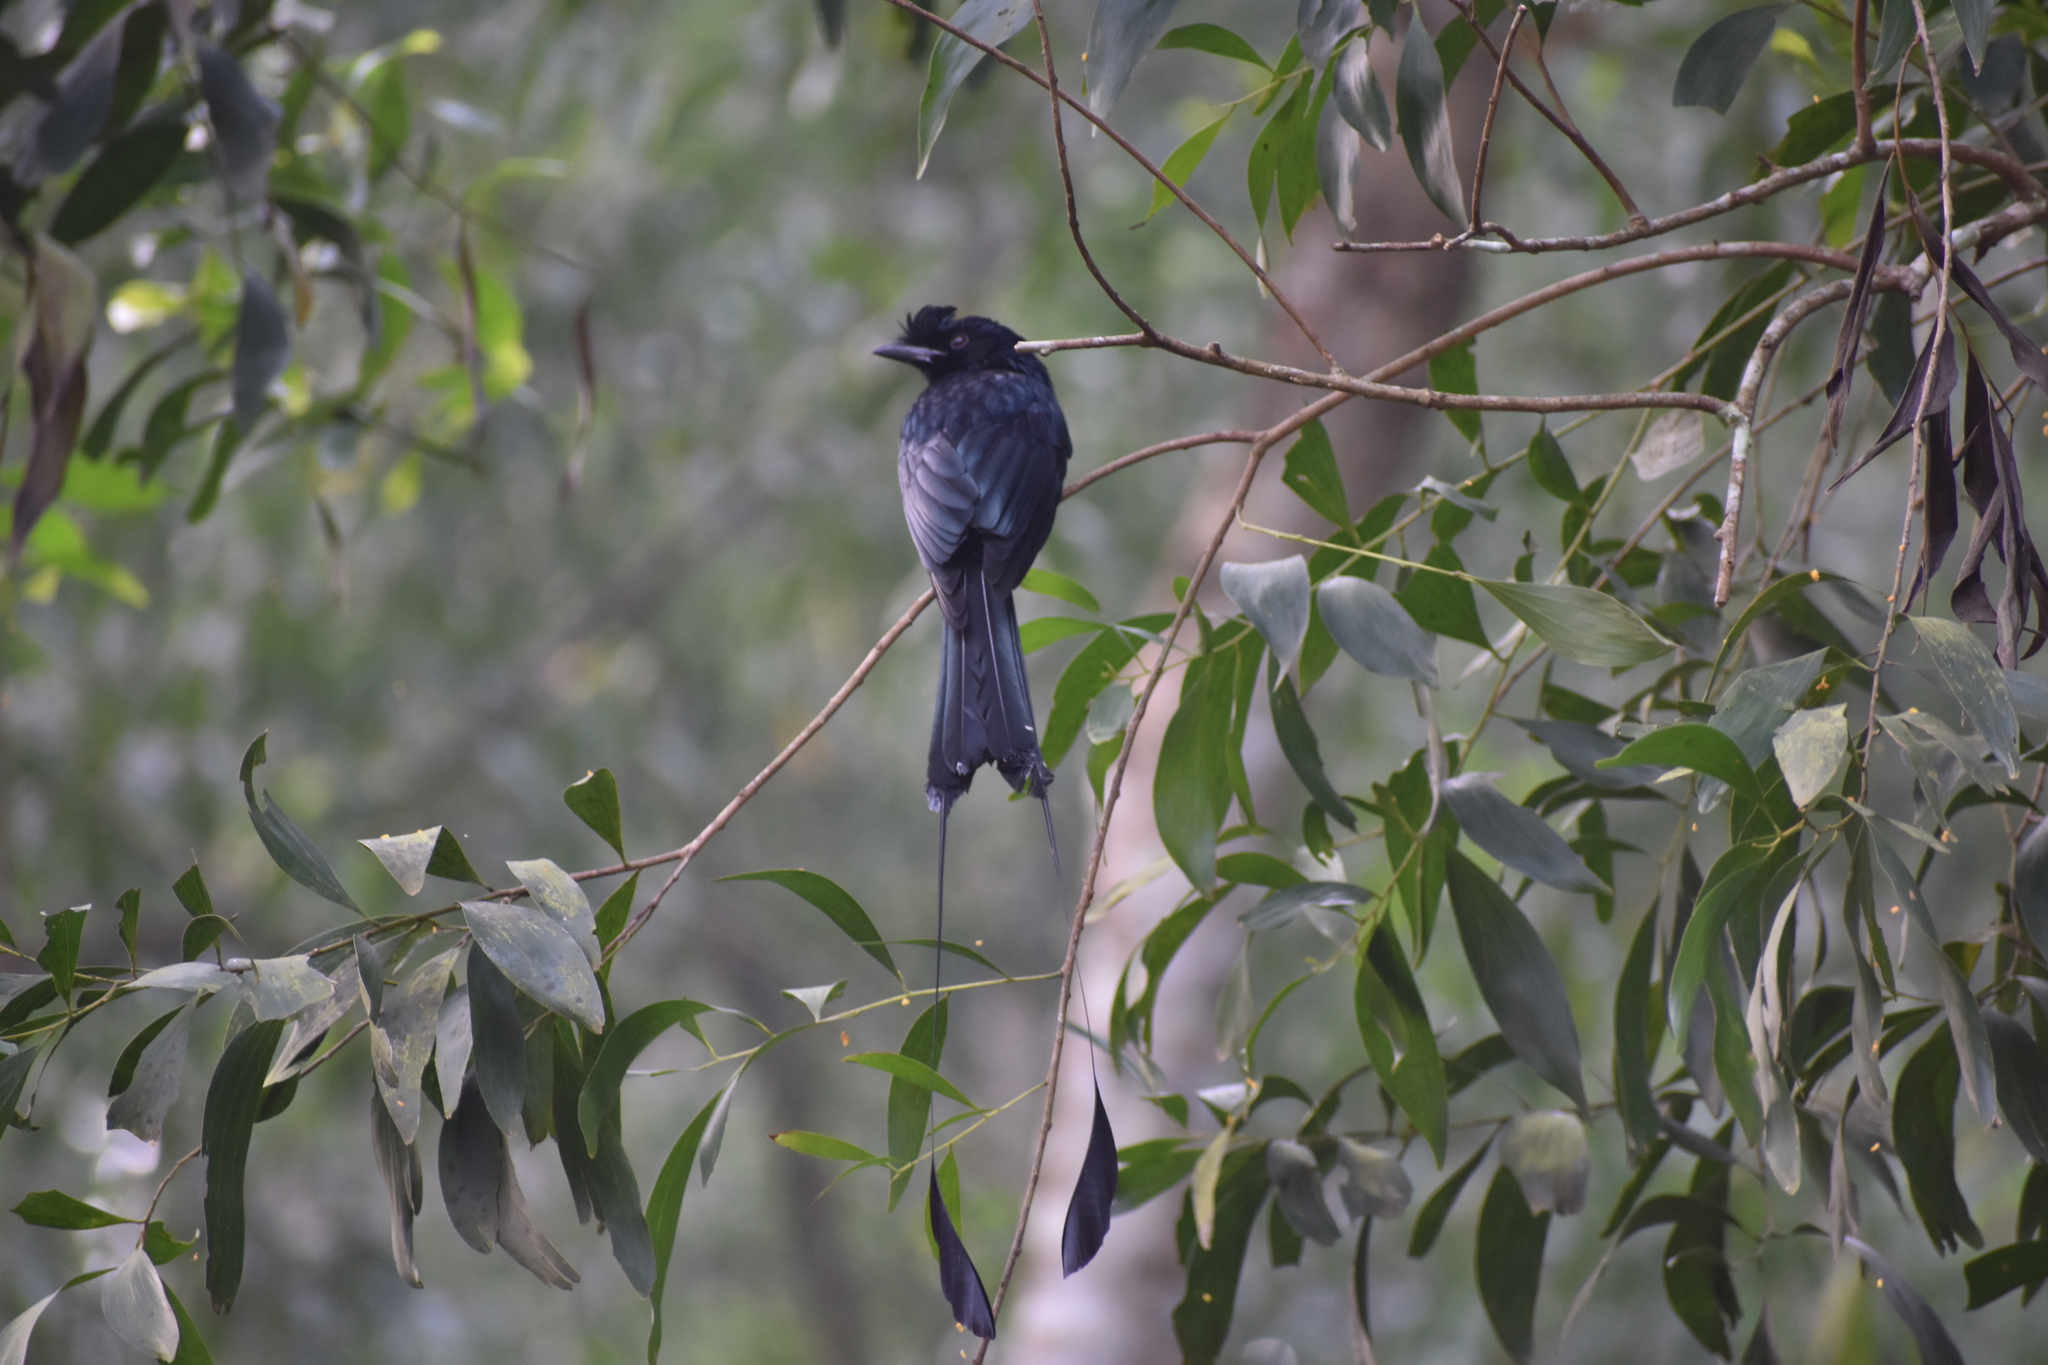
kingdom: Animalia
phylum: Chordata
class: Aves
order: Passeriformes
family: Dicruridae
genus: Dicrurus
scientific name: Dicrurus paradiseus
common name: Greater racket-tailed drongo
